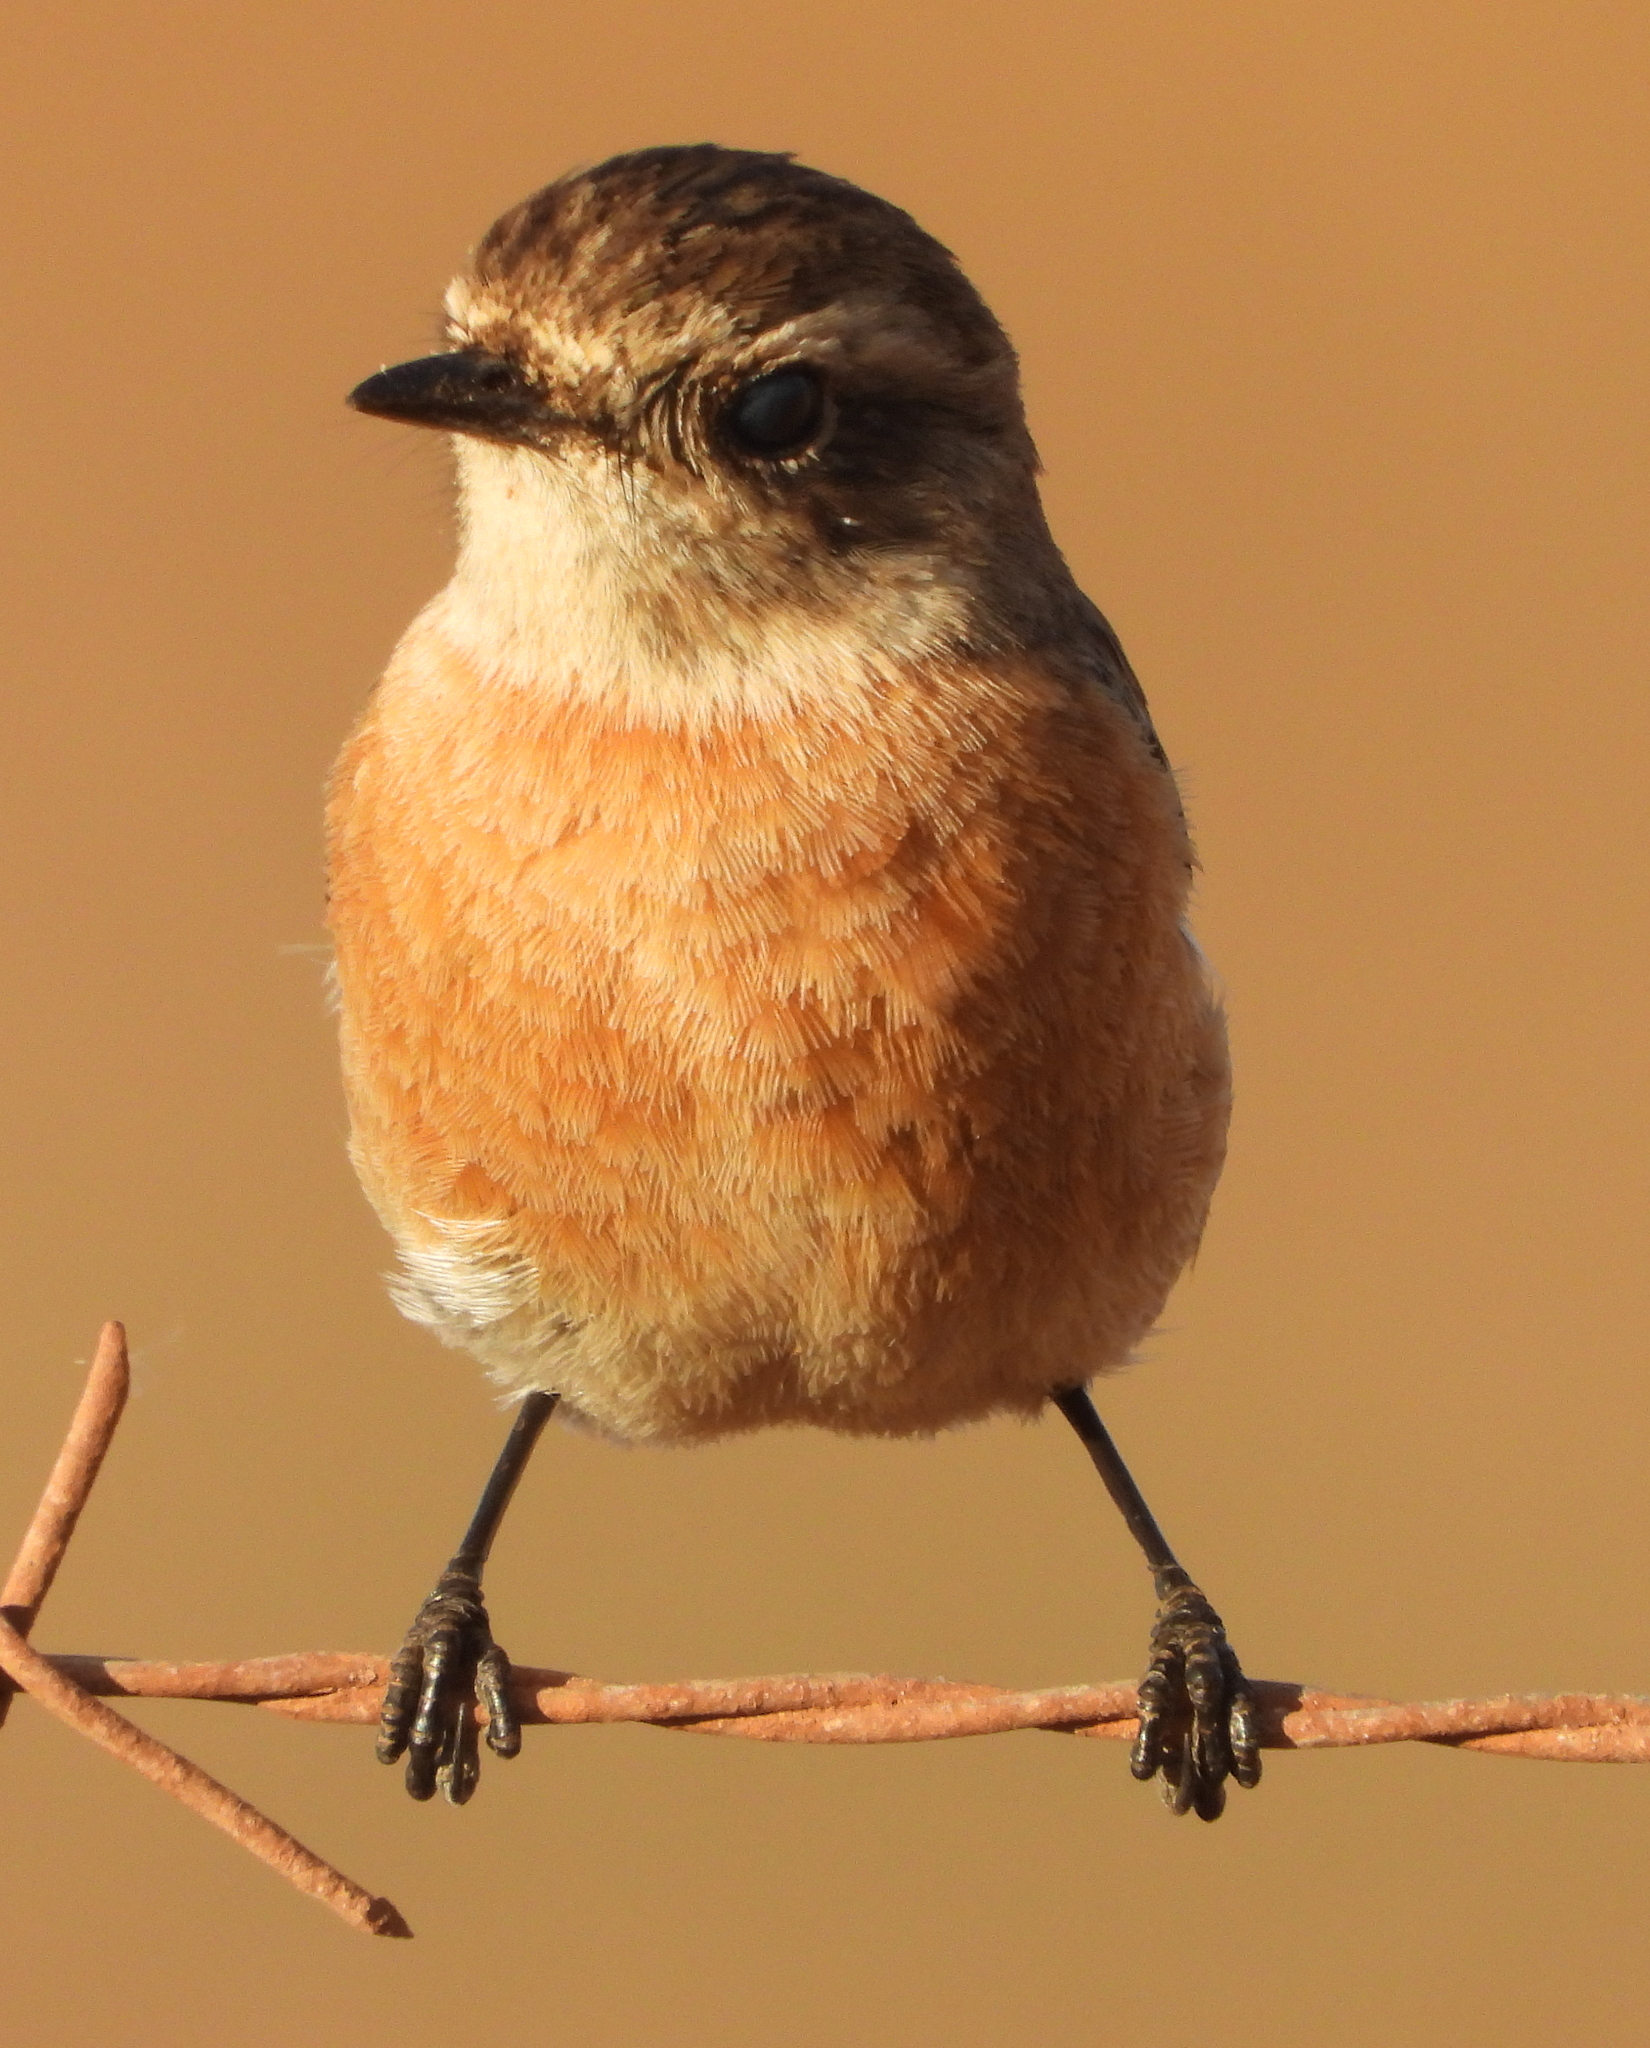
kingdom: Animalia
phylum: Chordata
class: Aves
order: Passeriformes
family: Muscicapidae
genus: Saxicola
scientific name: Saxicola torquatus
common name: African stonechat
